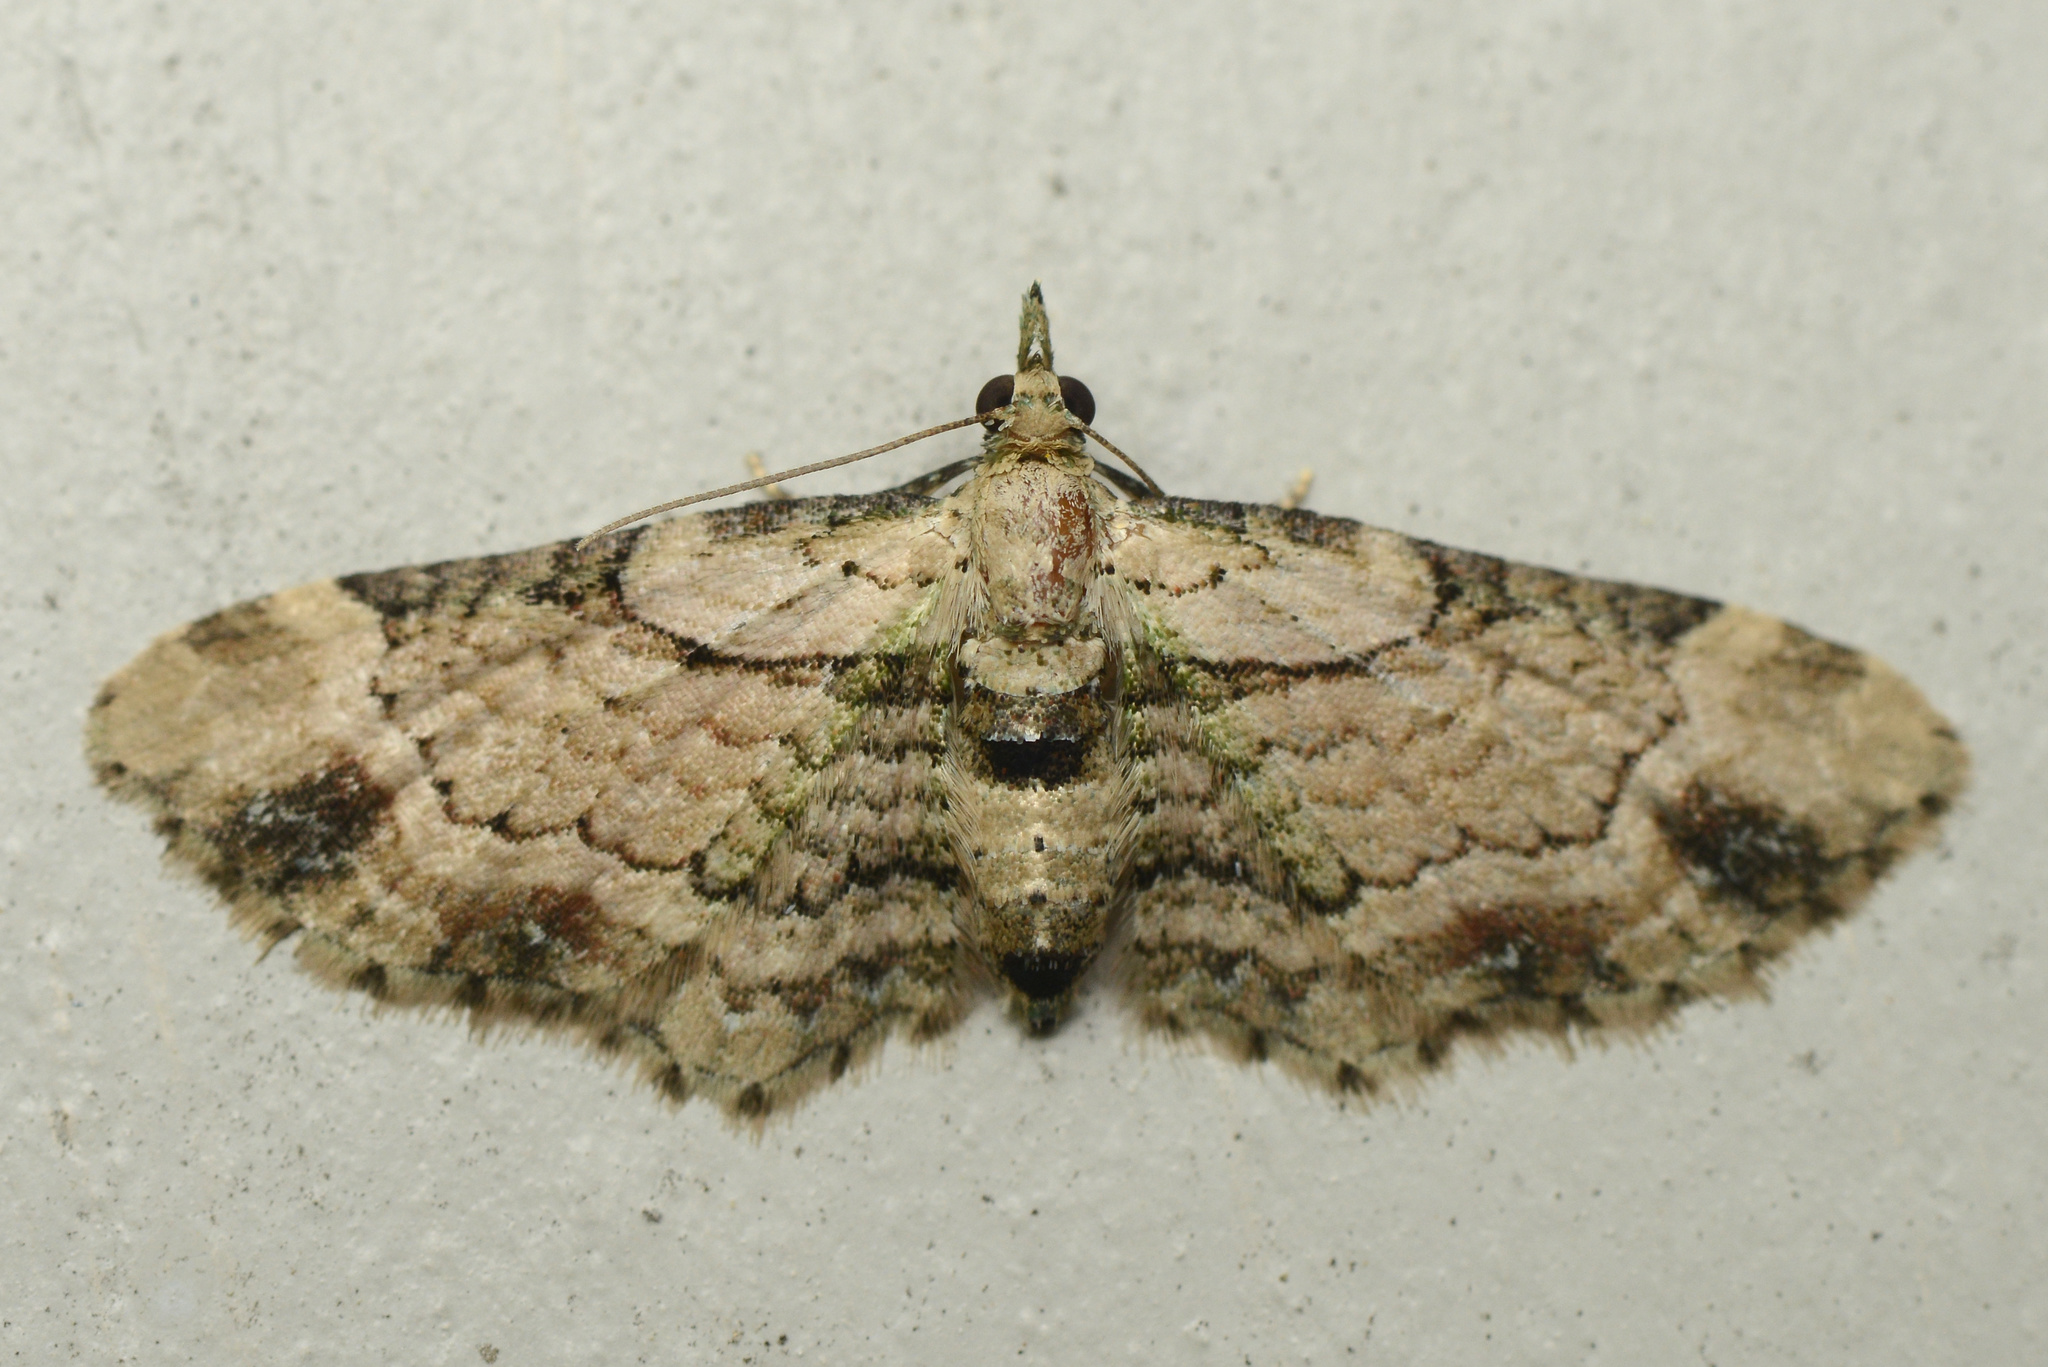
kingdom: Animalia
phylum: Arthropoda
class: Insecta
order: Lepidoptera
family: Geometridae
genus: Chloroclystis
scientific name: Chloroclystis
